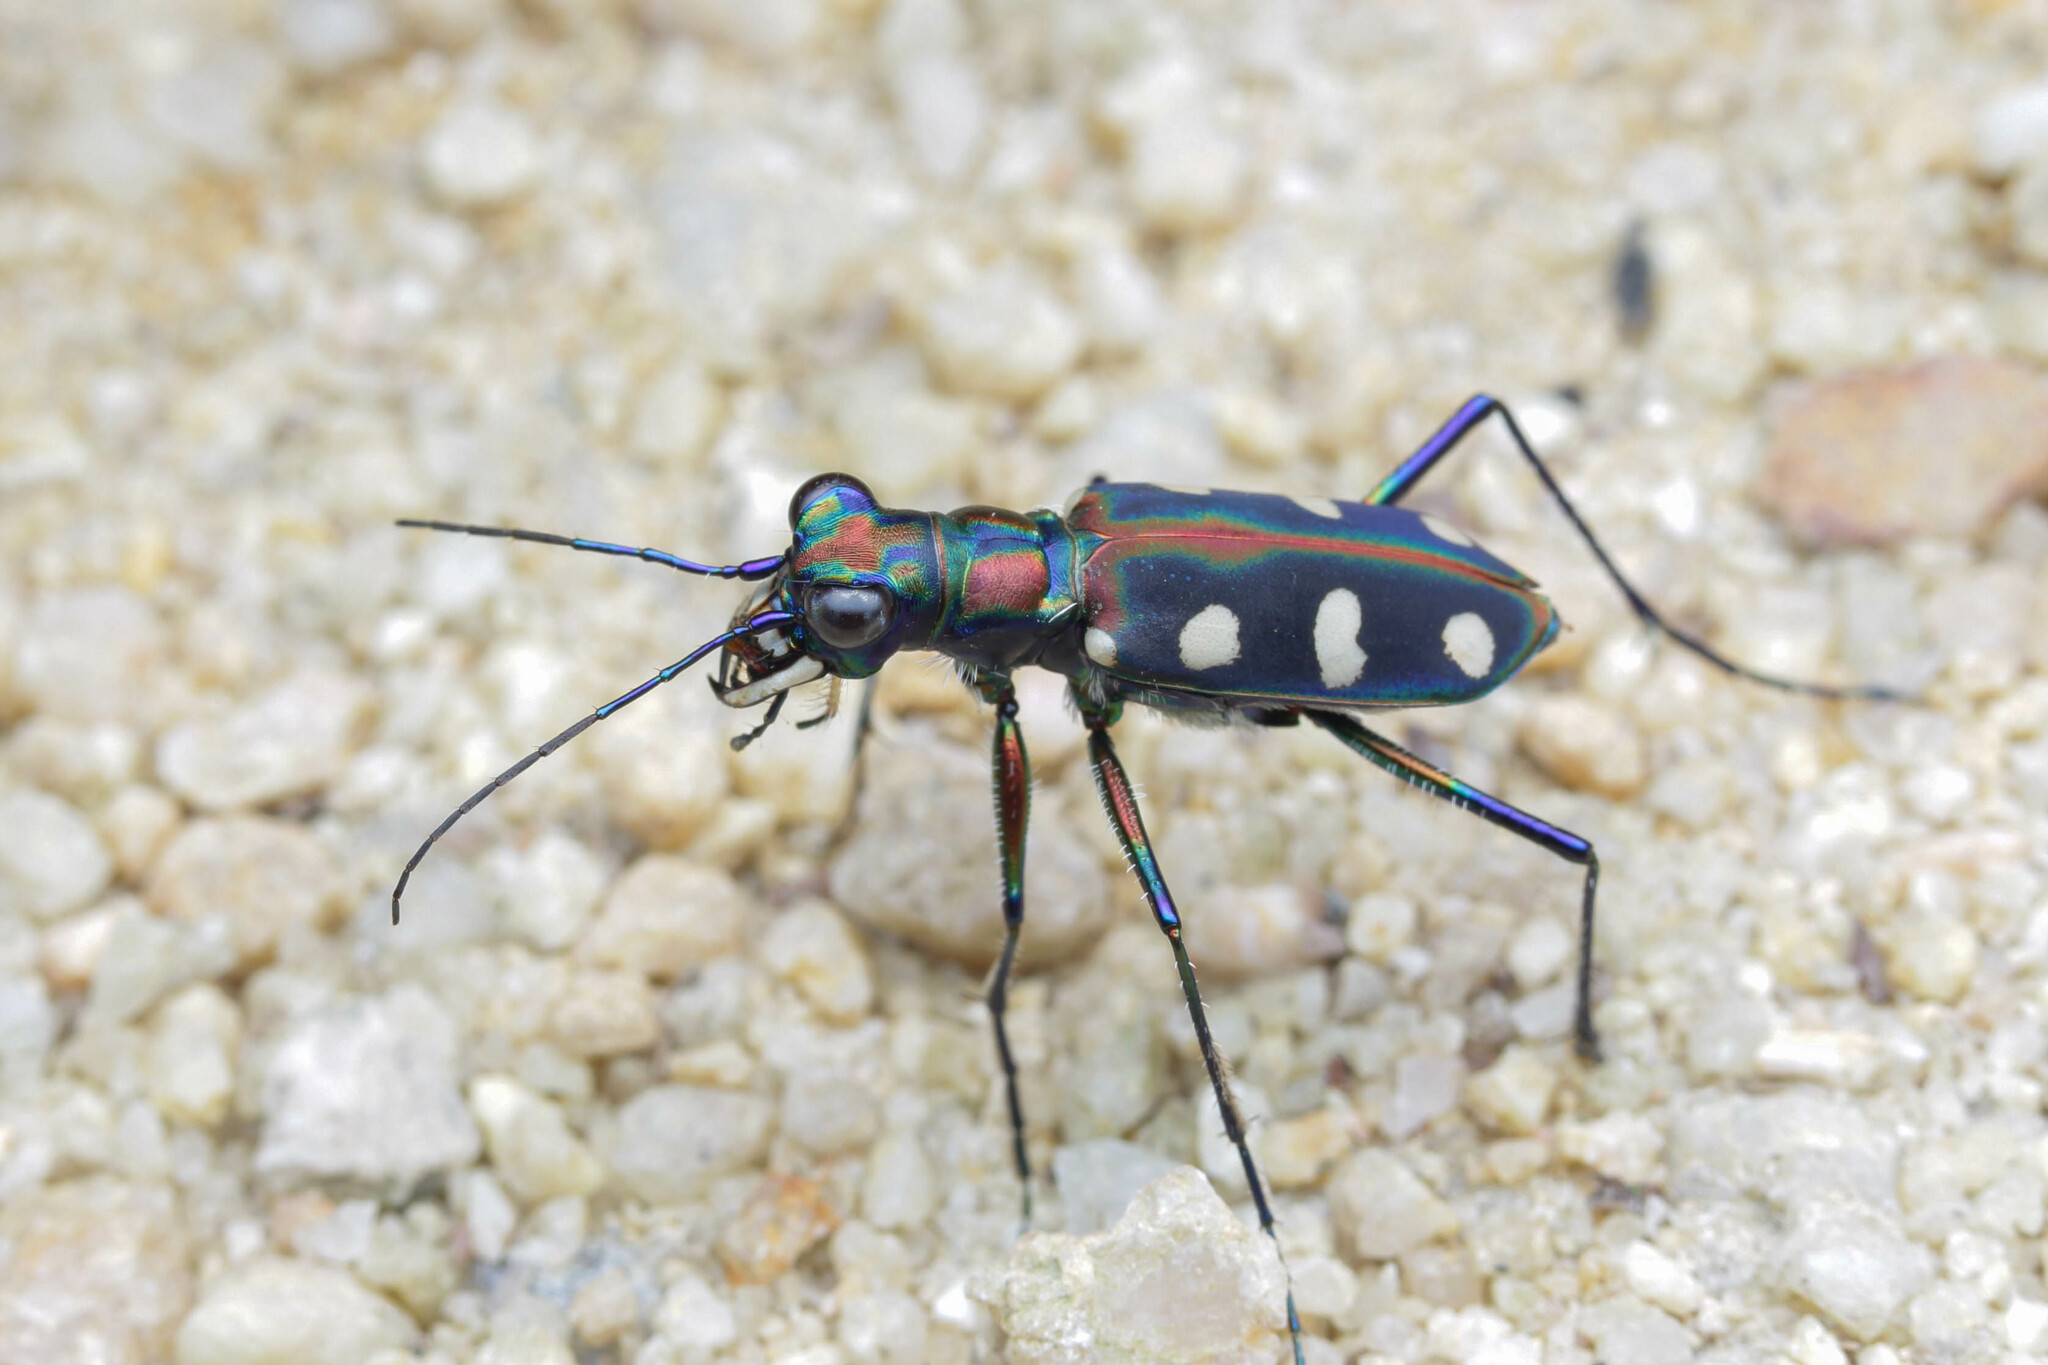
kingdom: Animalia
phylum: Arthropoda
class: Insecta
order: Coleoptera
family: Carabidae
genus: Cicindela
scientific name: Cicindela aurulenta
